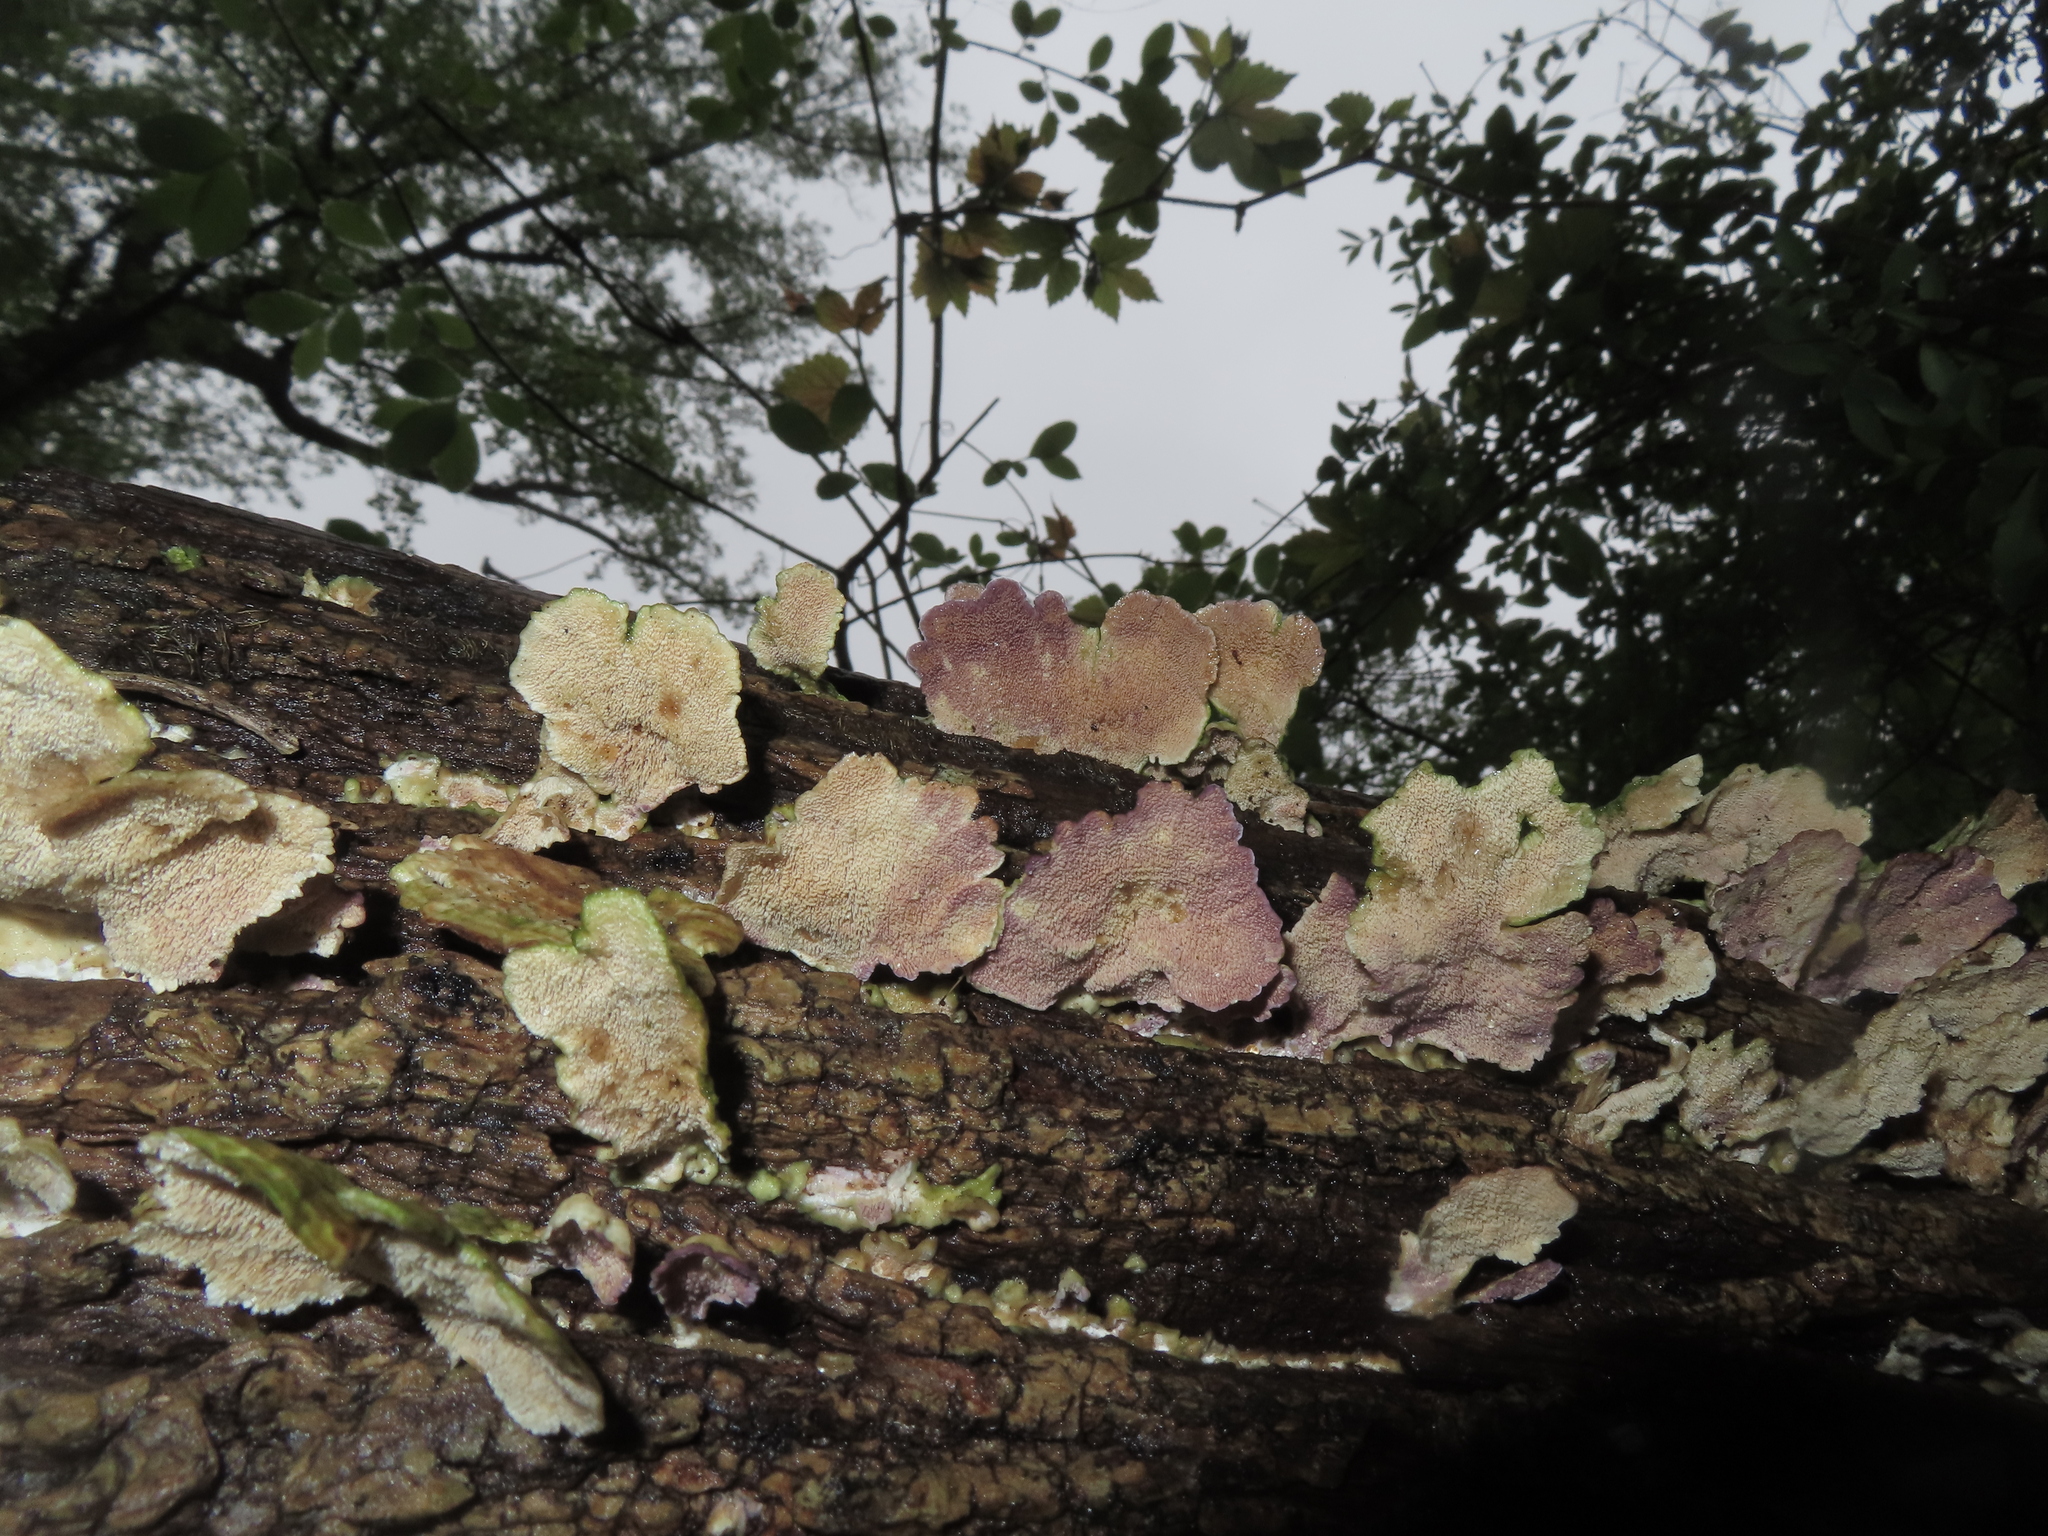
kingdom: Fungi
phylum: Basidiomycota
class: Agaricomycetes
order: Hymenochaetales
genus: Trichaptum
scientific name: Trichaptum biforme
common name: Violet-toothed polypore
